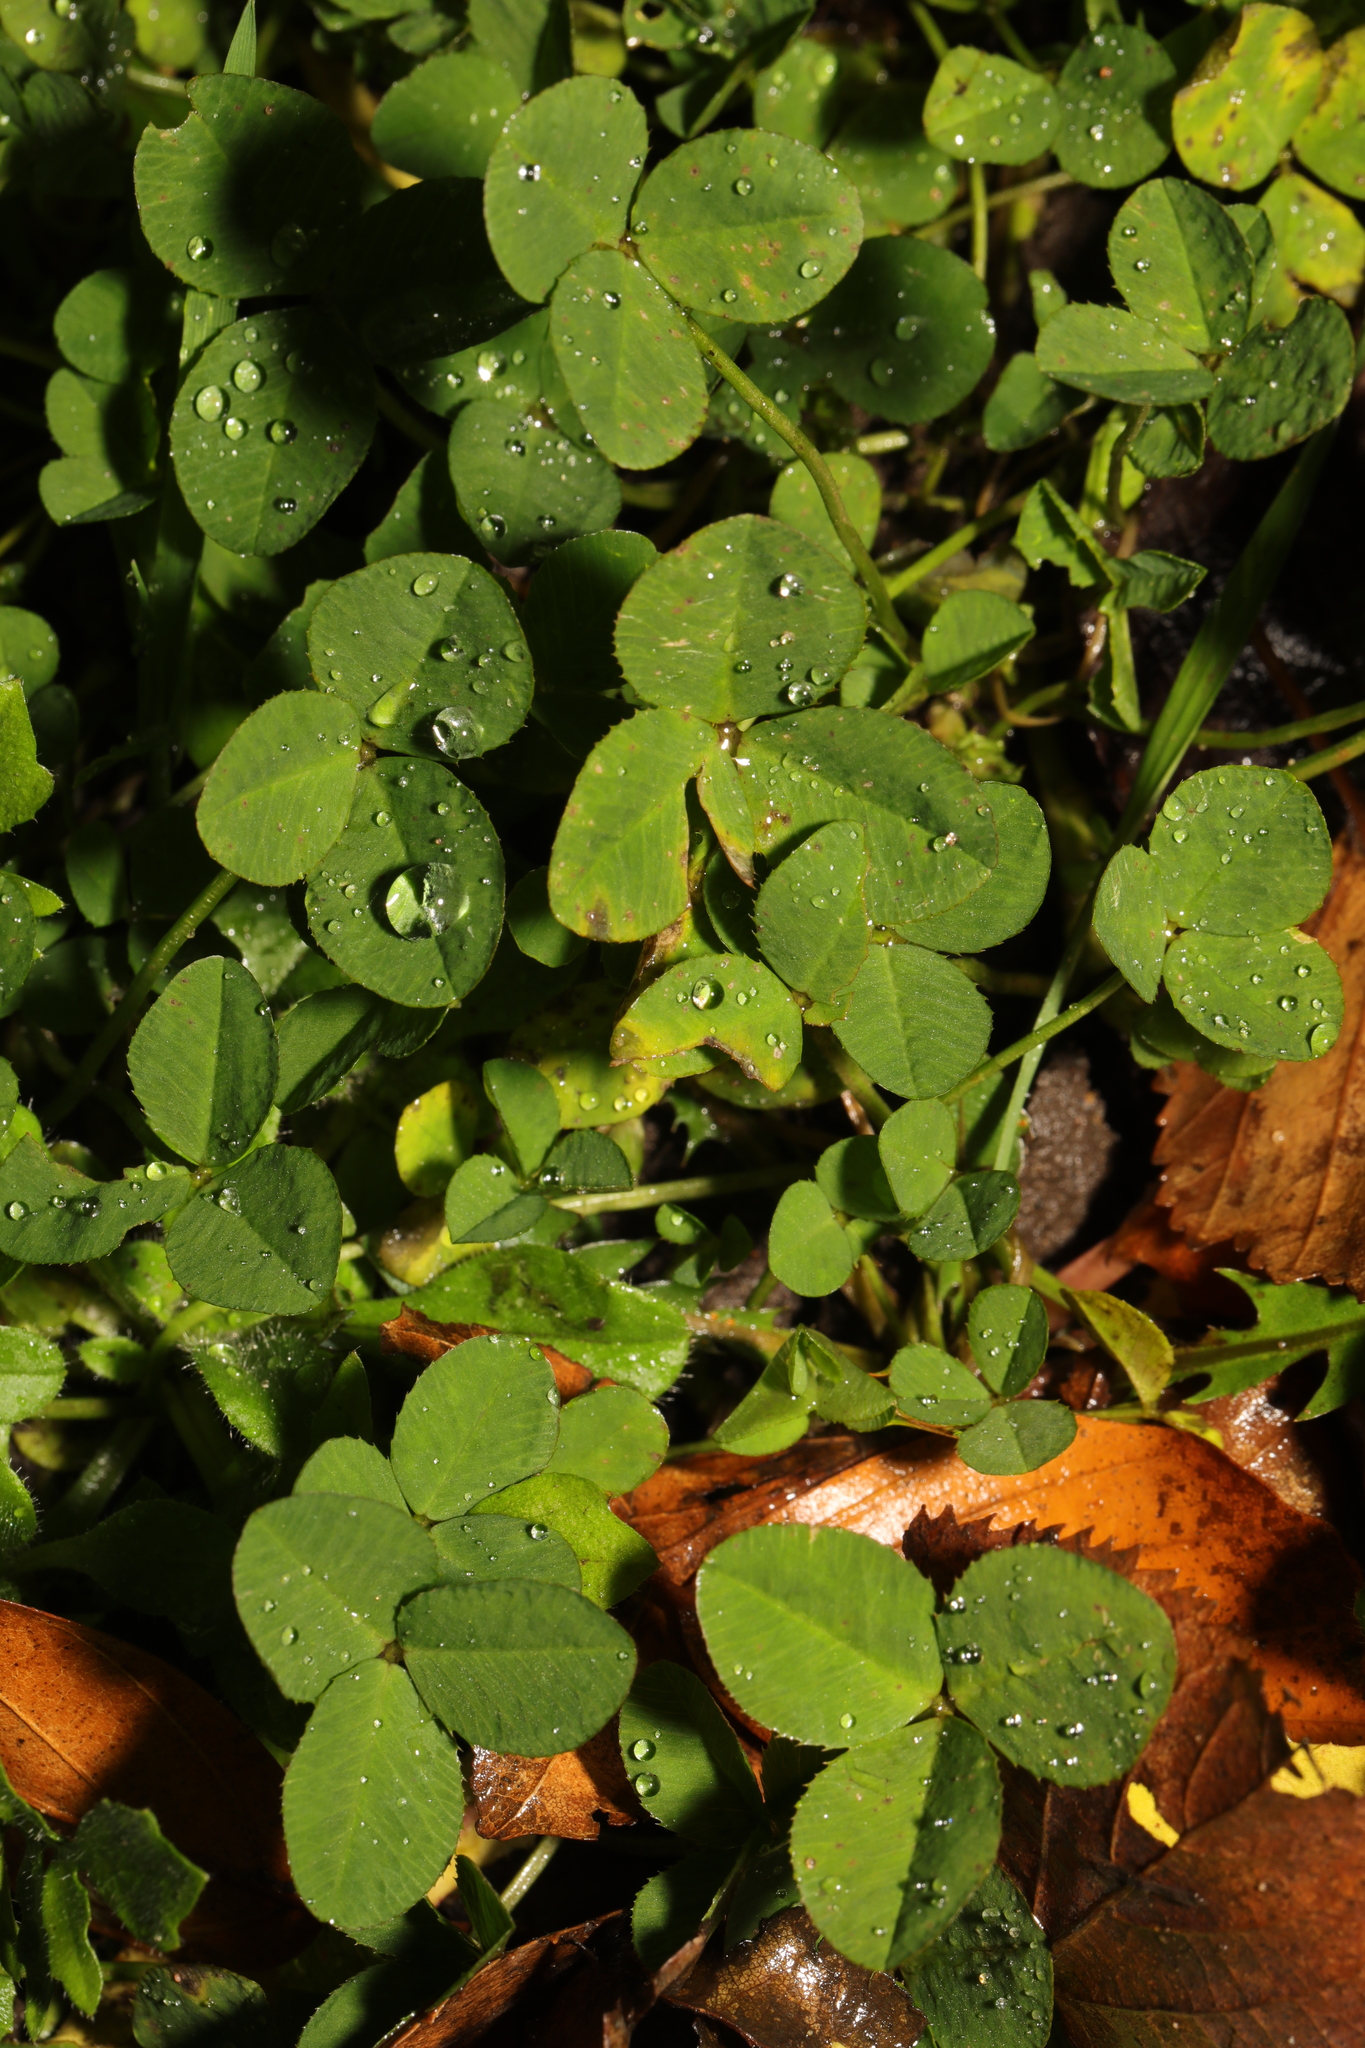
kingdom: Plantae
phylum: Tracheophyta
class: Magnoliopsida
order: Fabales
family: Fabaceae
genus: Trifolium
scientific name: Trifolium repens
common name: White clover
